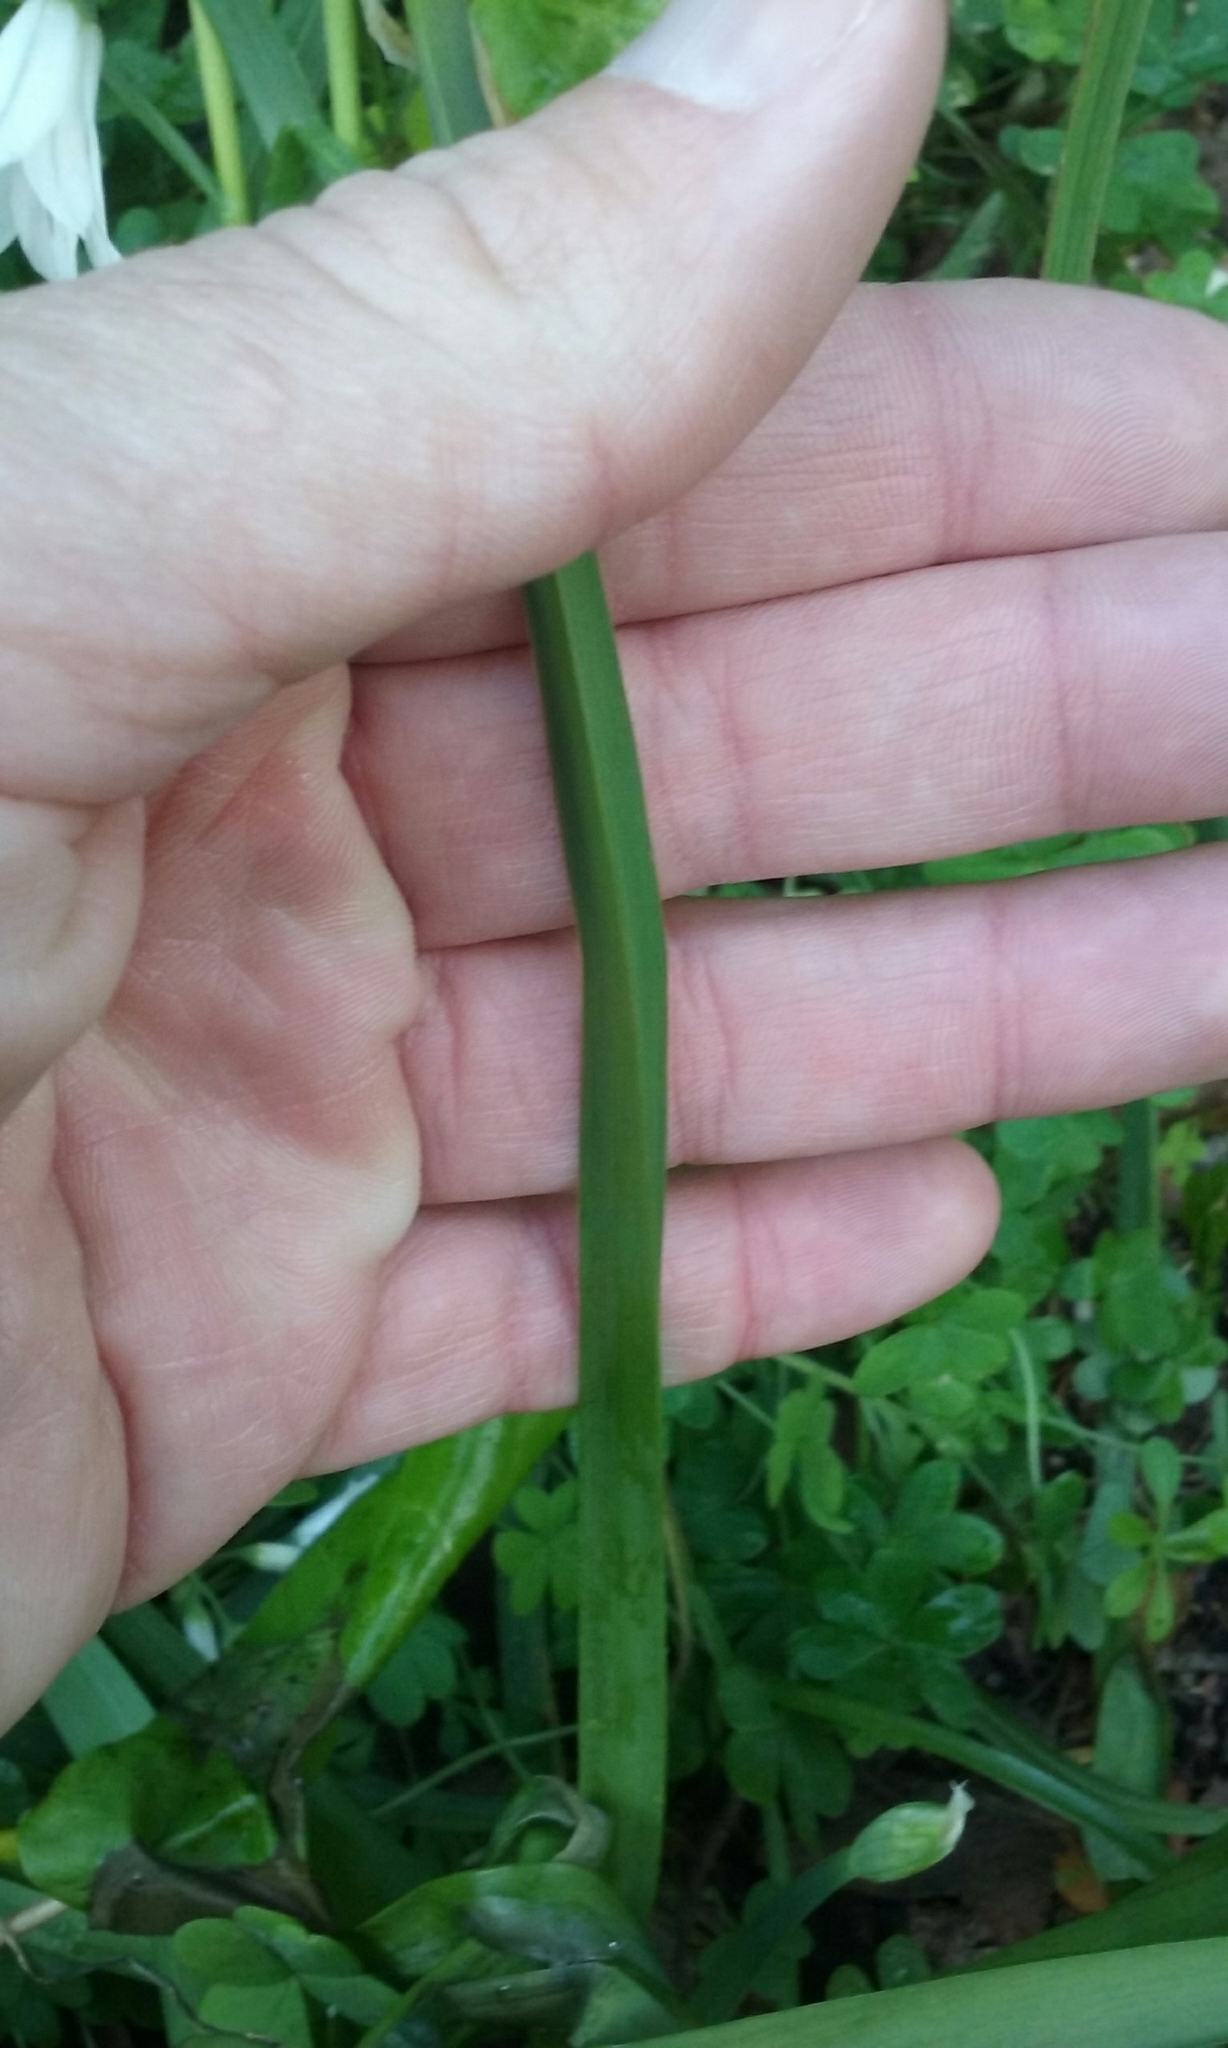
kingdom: Plantae
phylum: Tracheophyta
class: Liliopsida
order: Asparagales
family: Amaryllidaceae
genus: Allium
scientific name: Allium triquetrum
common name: Three-cornered garlic
